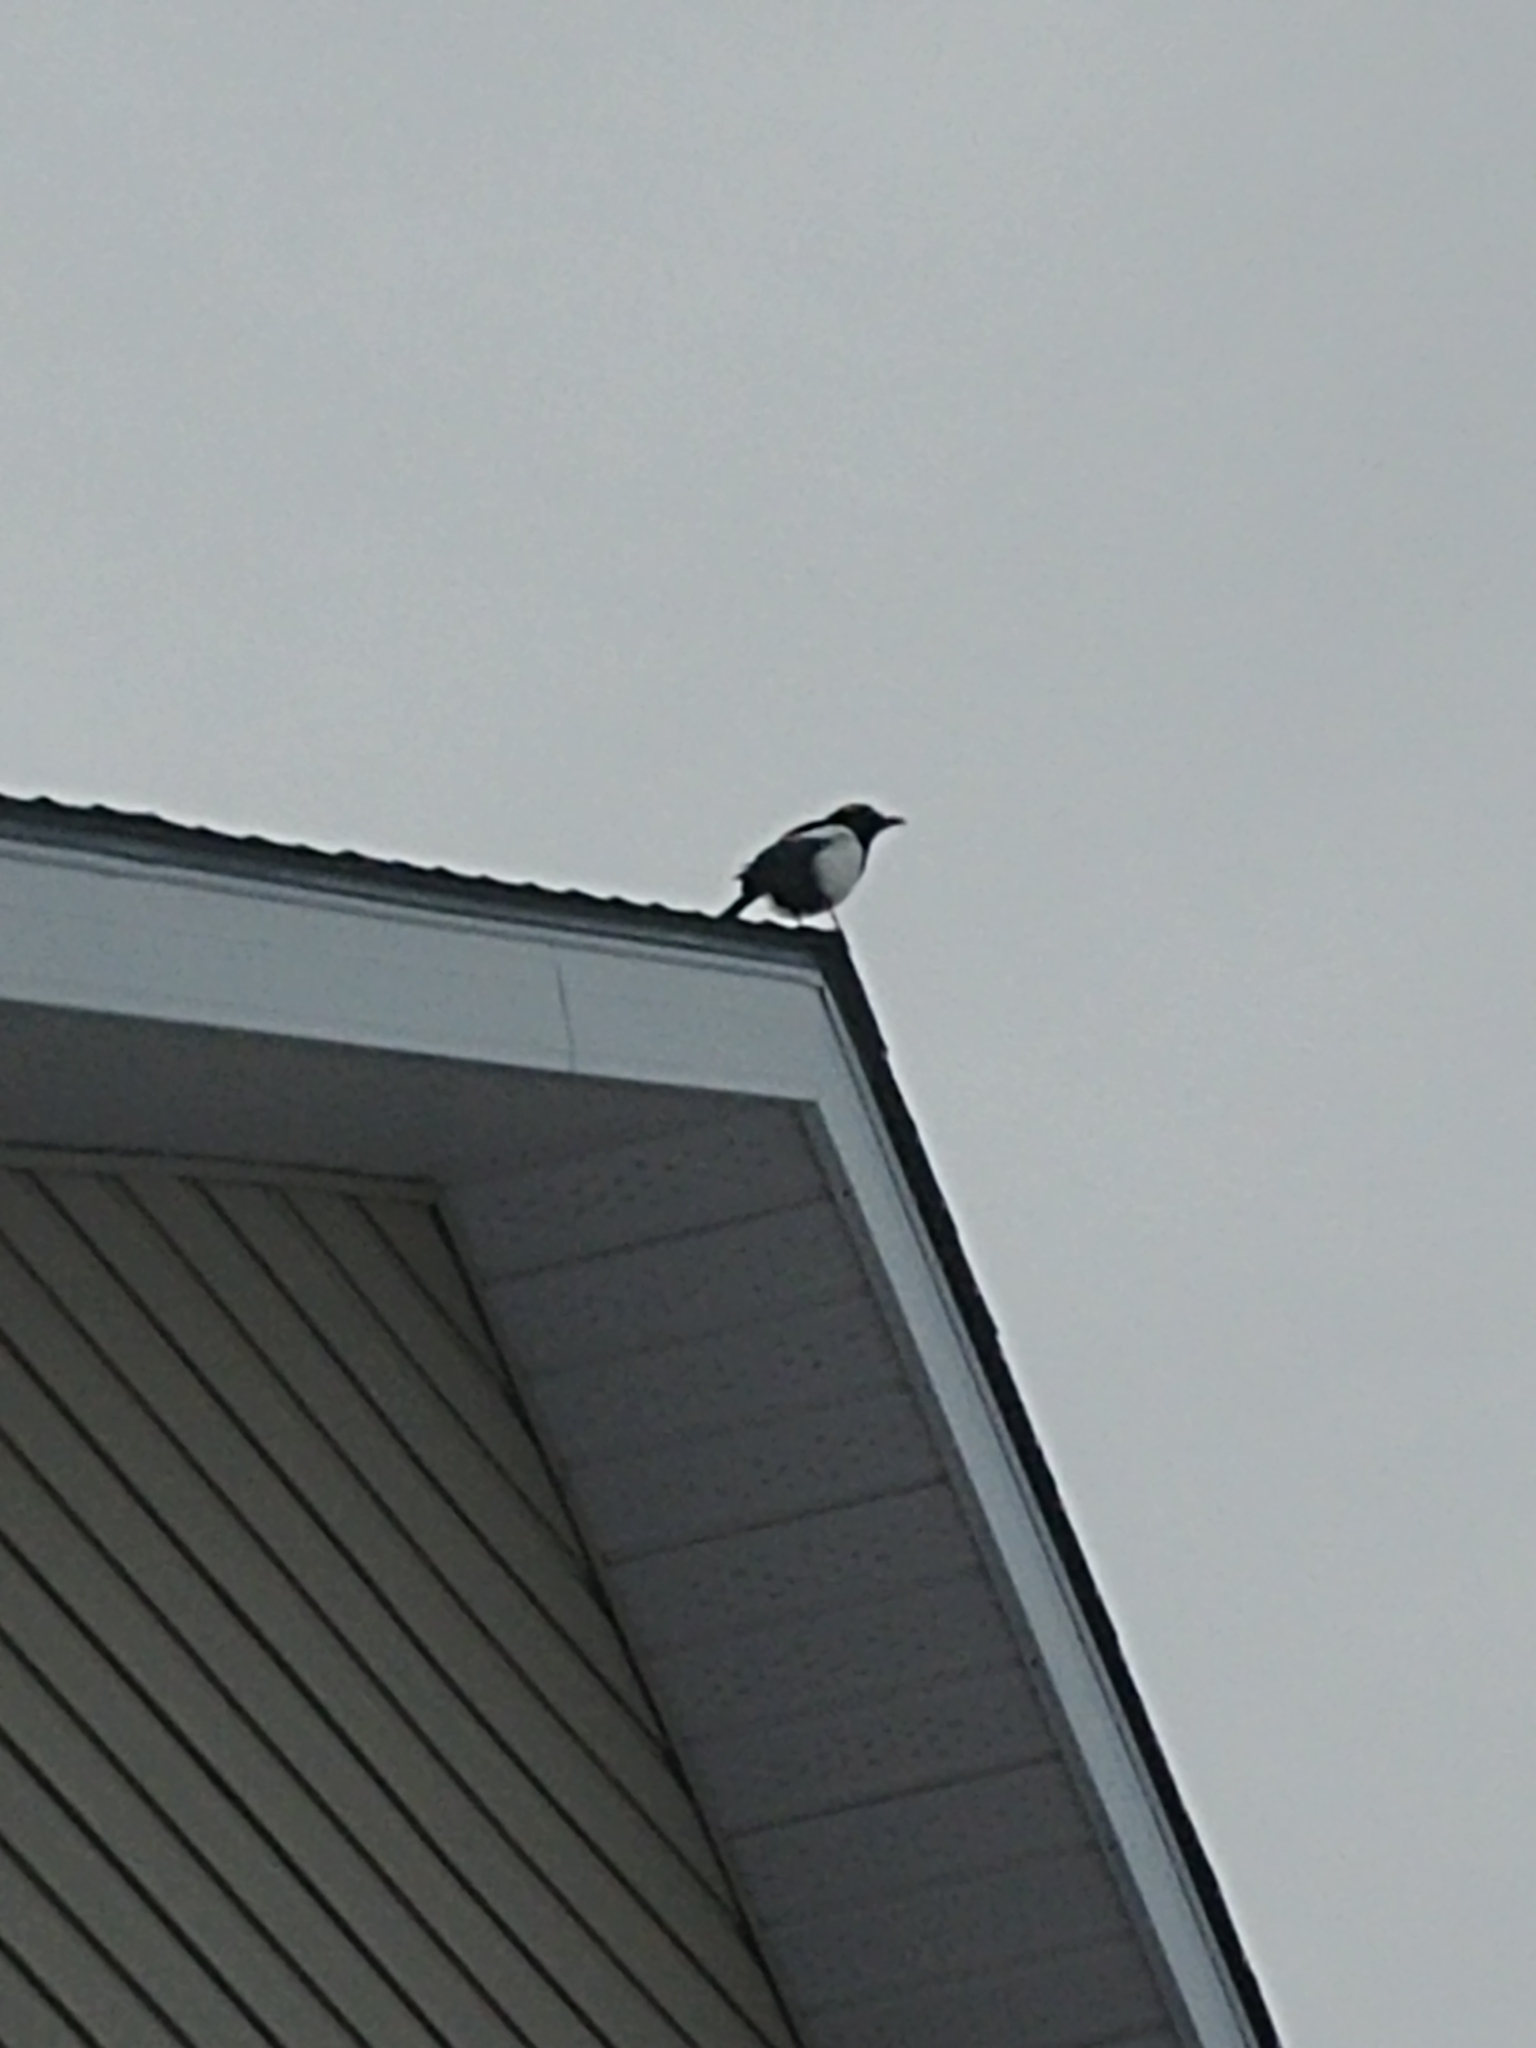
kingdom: Animalia
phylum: Chordata
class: Aves
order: Passeriformes
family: Corvidae
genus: Pica
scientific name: Pica hudsonia
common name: Black-billed magpie
